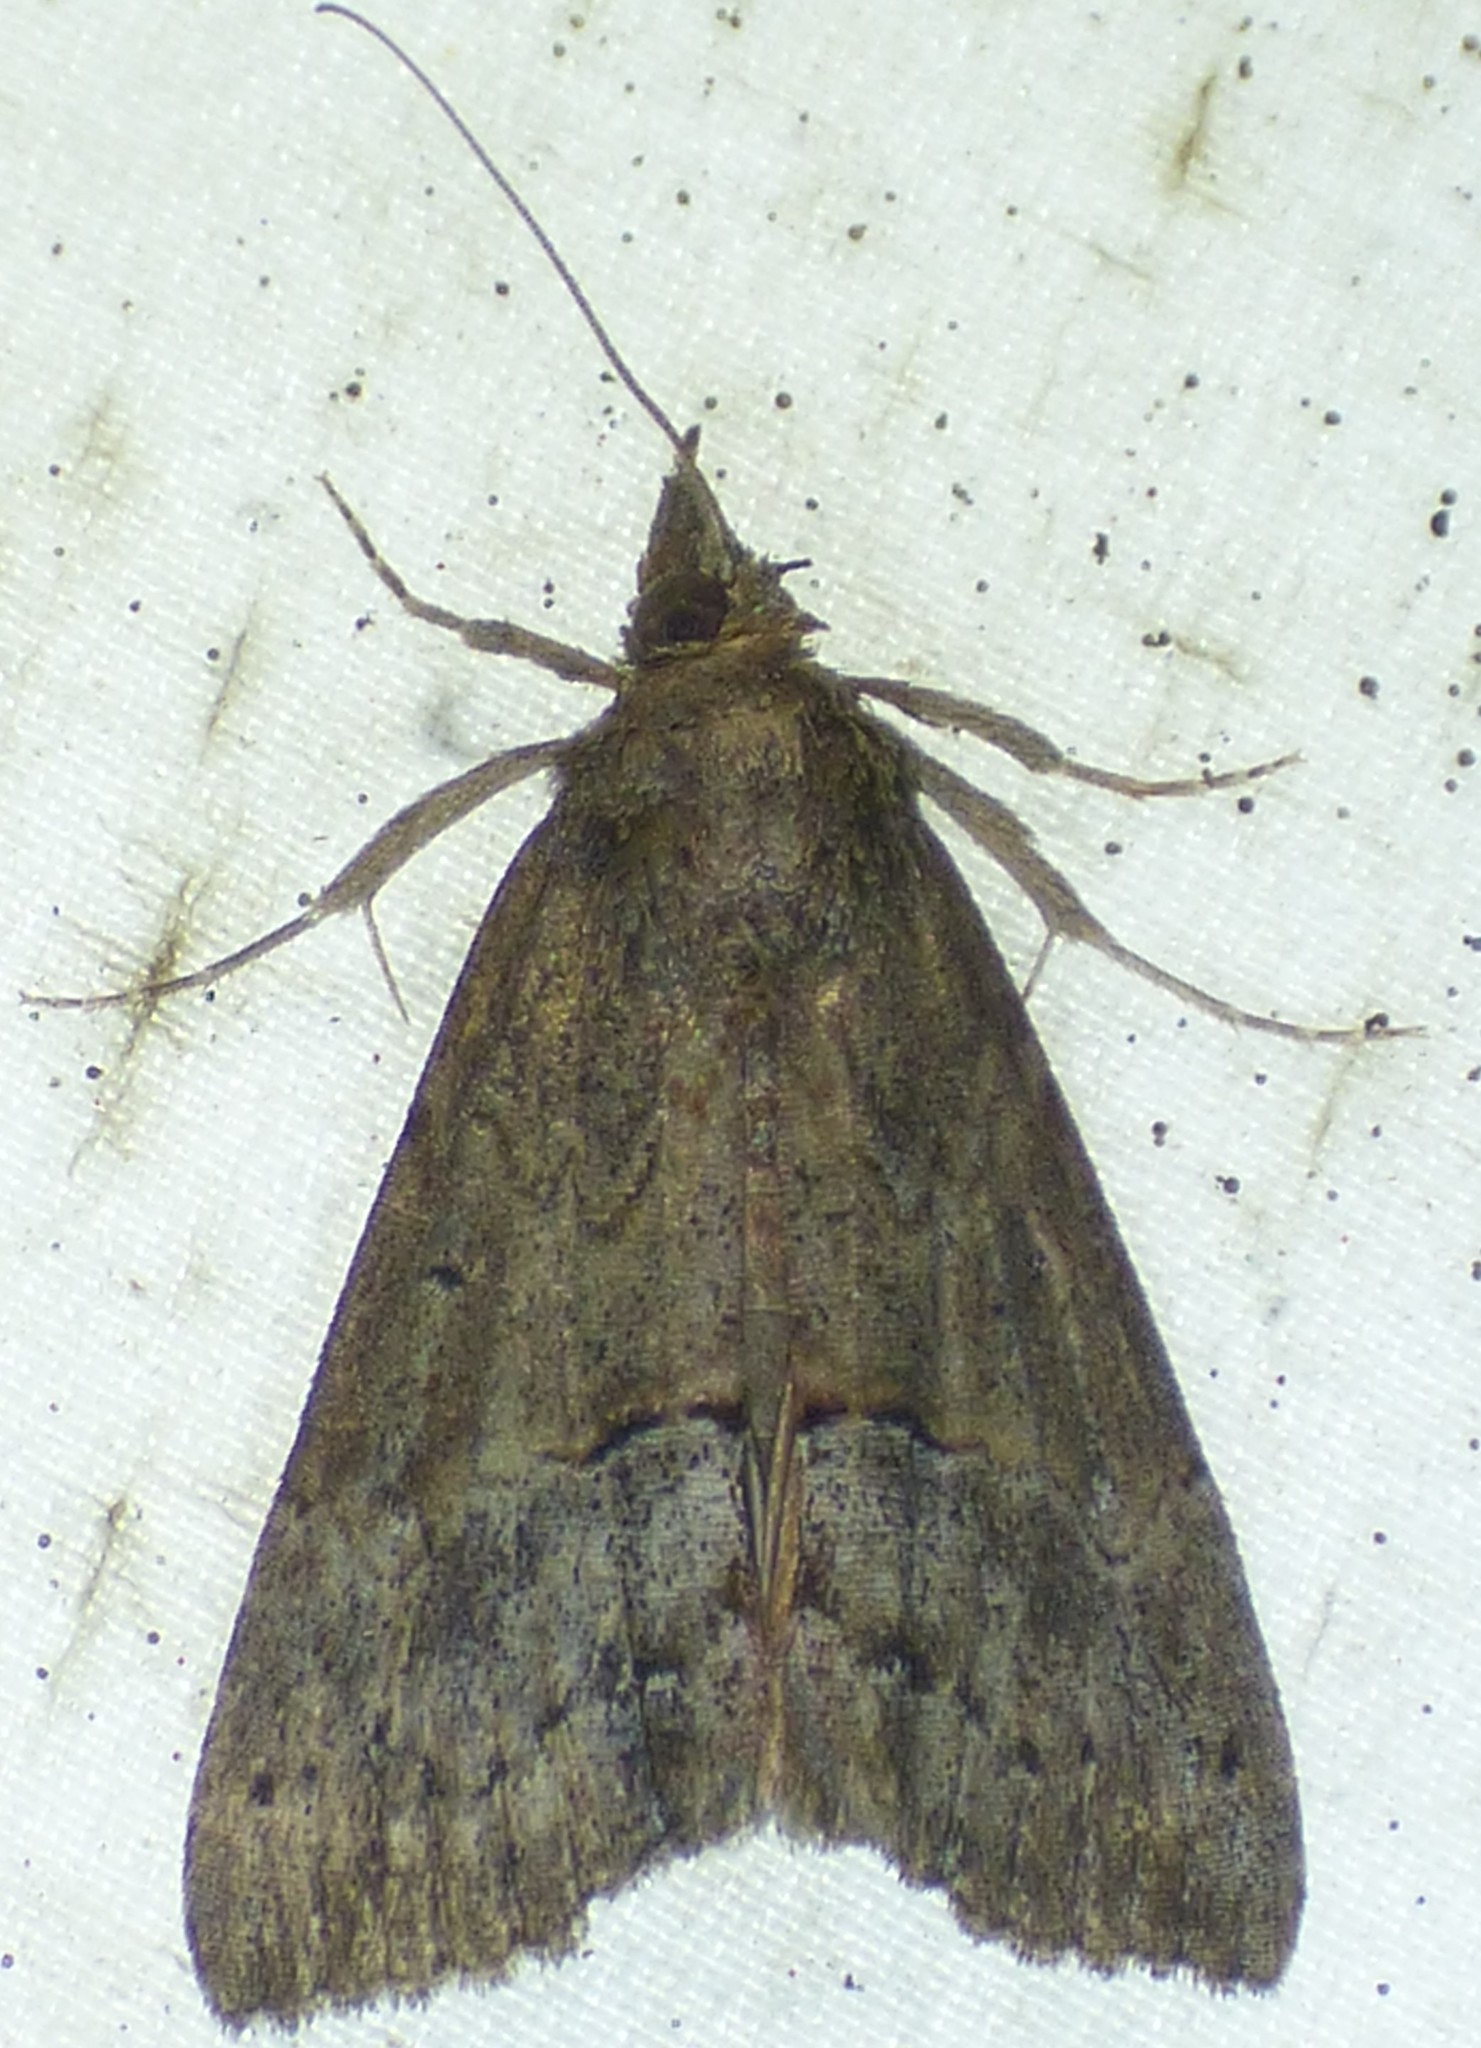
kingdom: Animalia
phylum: Arthropoda
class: Insecta
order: Lepidoptera
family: Erebidae
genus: Hypena
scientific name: Hypena scabra
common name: Green cloverworm
